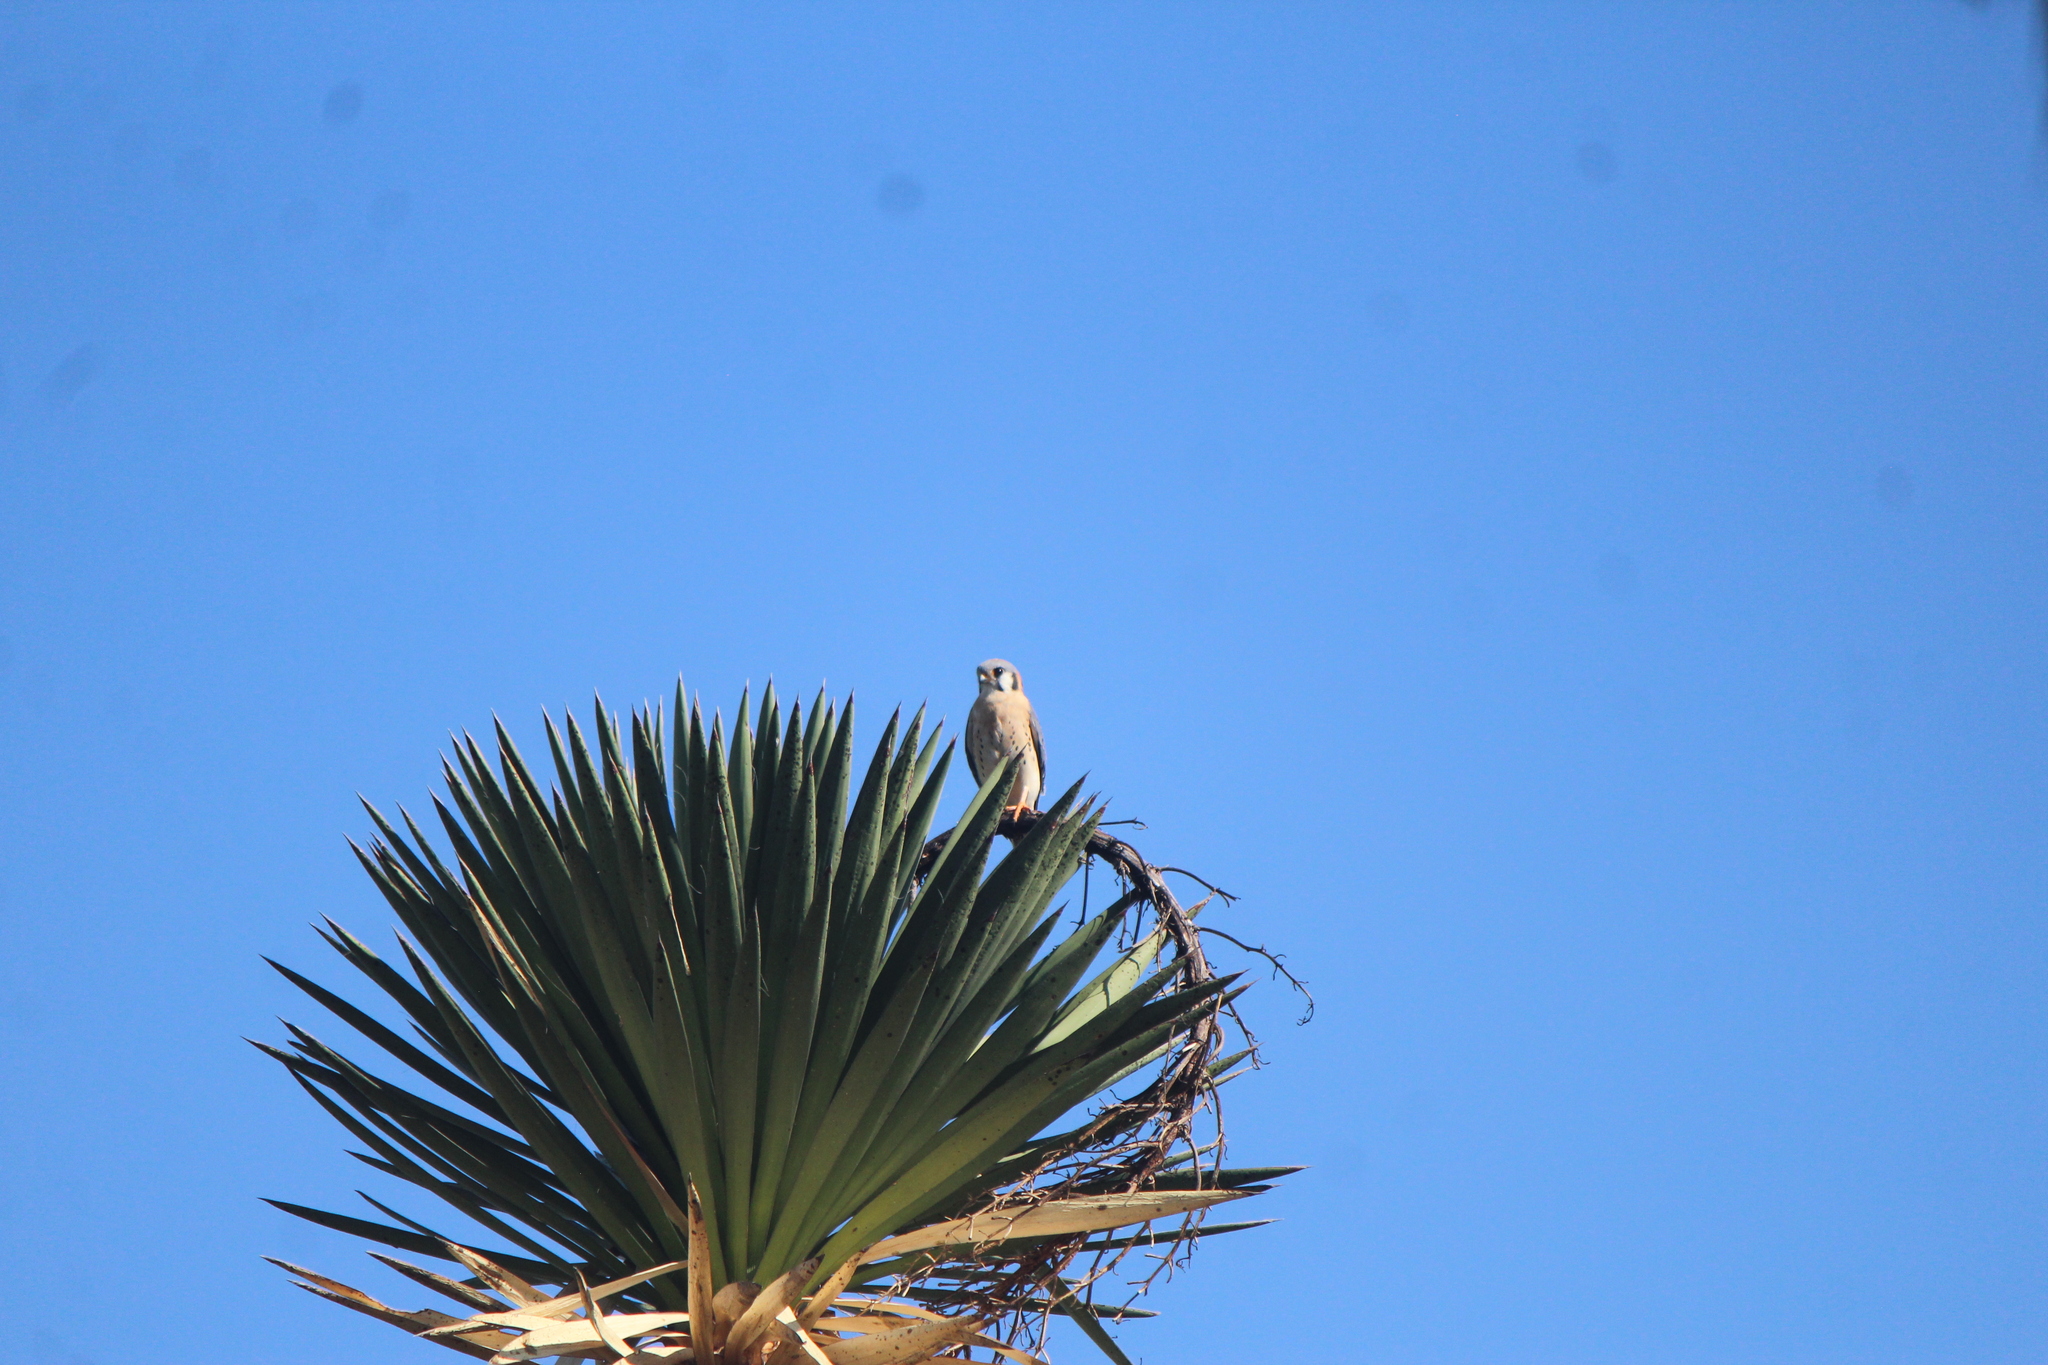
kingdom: Animalia
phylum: Chordata
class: Aves
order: Falconiformes
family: Falconidae
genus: Falco
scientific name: Falco sparverius
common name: American kestrel
